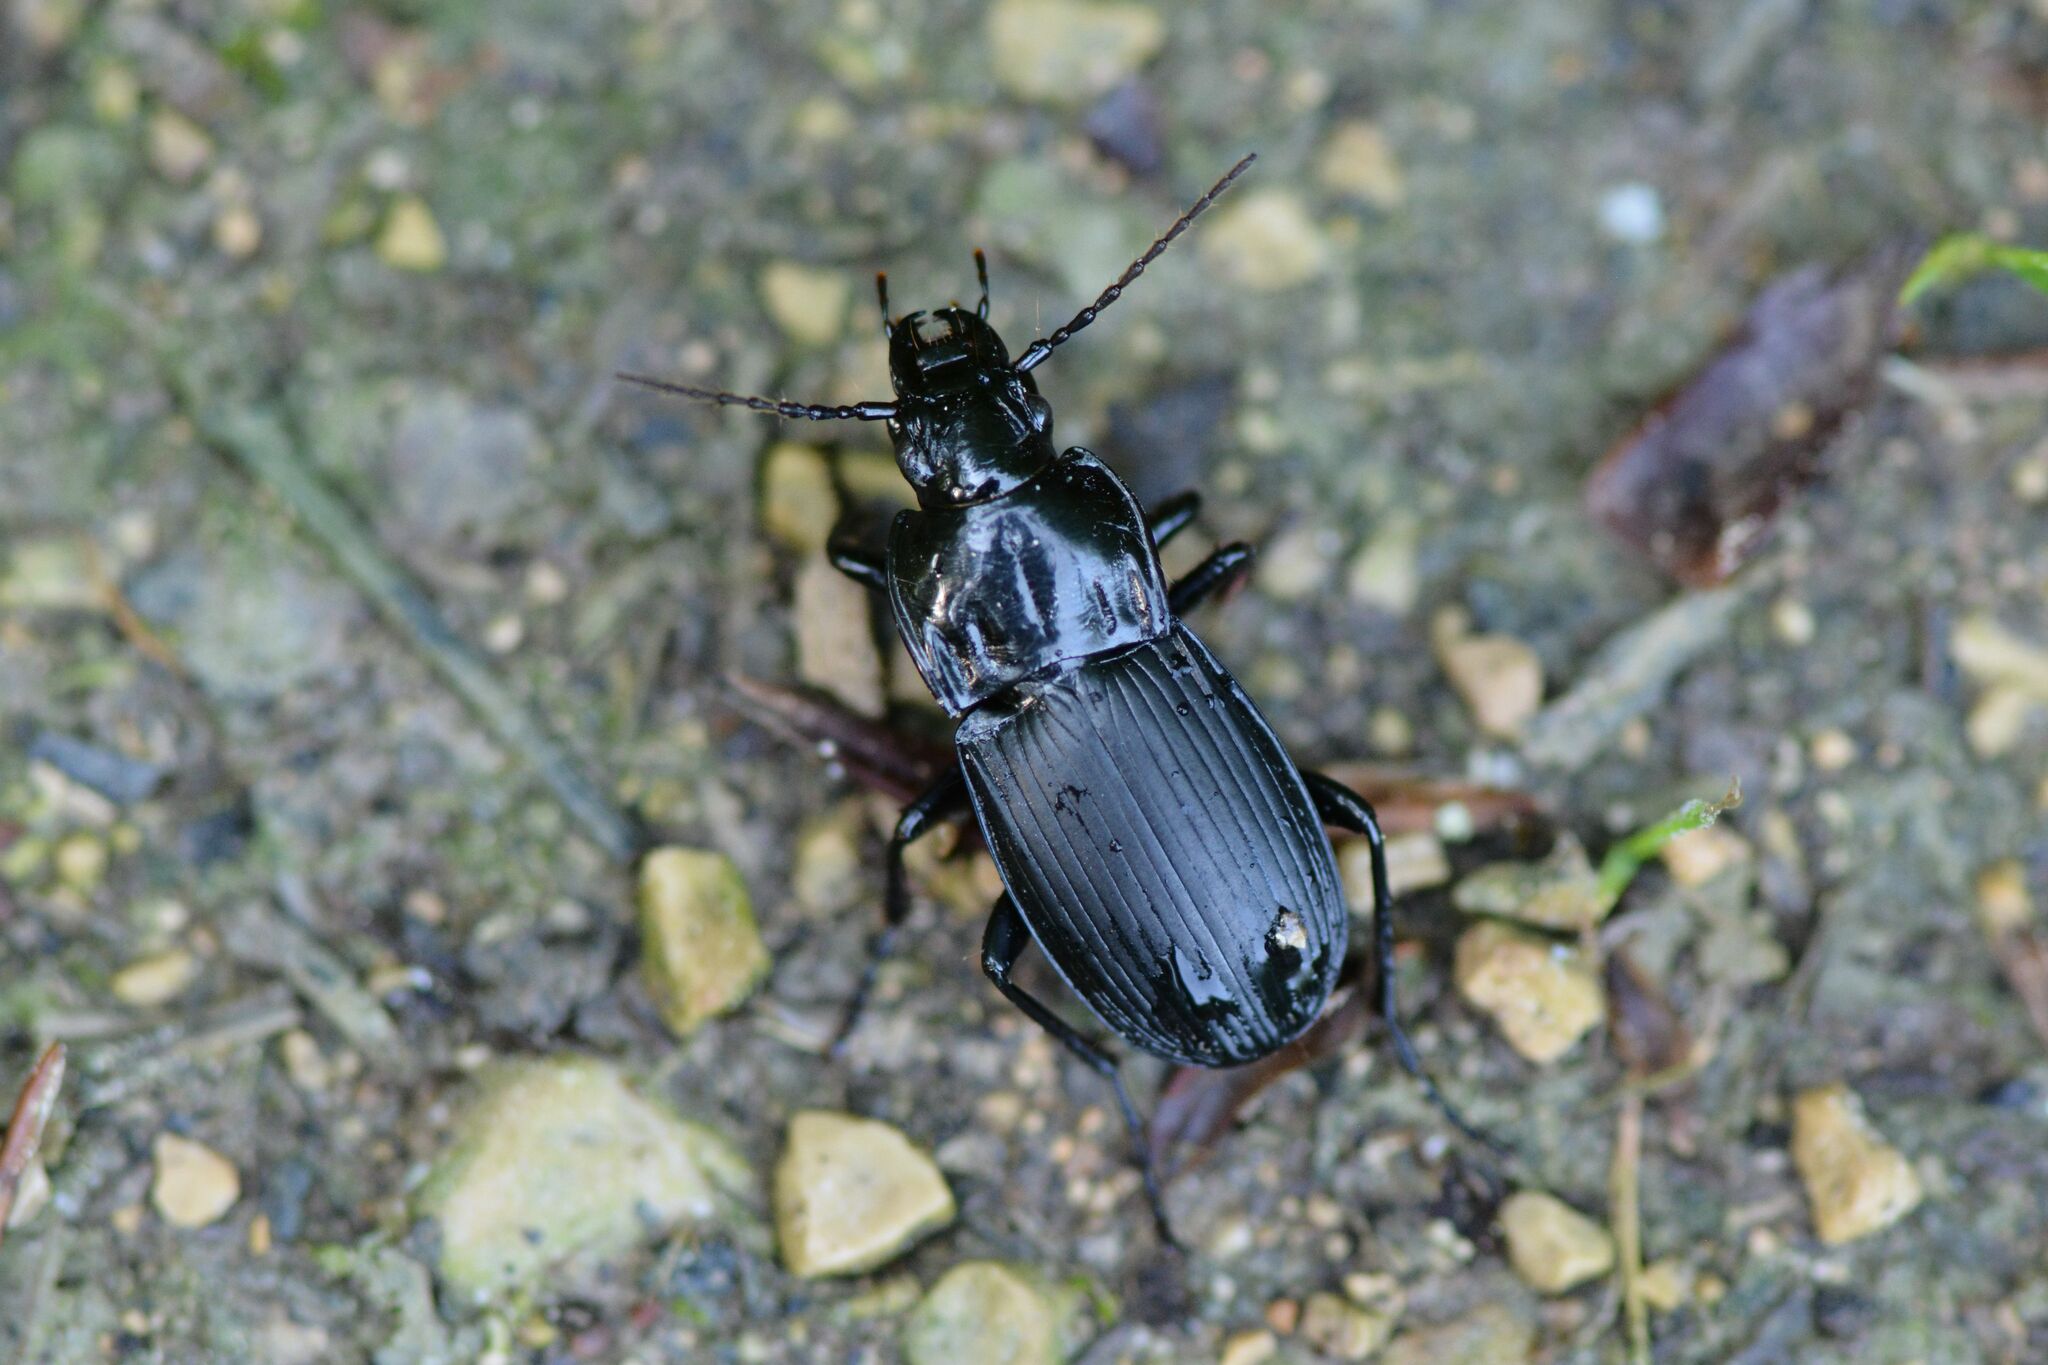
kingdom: Animalia
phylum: Arthropoda
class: Insecta
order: Coleoptera
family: Carabidae
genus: Abax
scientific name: Abax parallelepipedus
